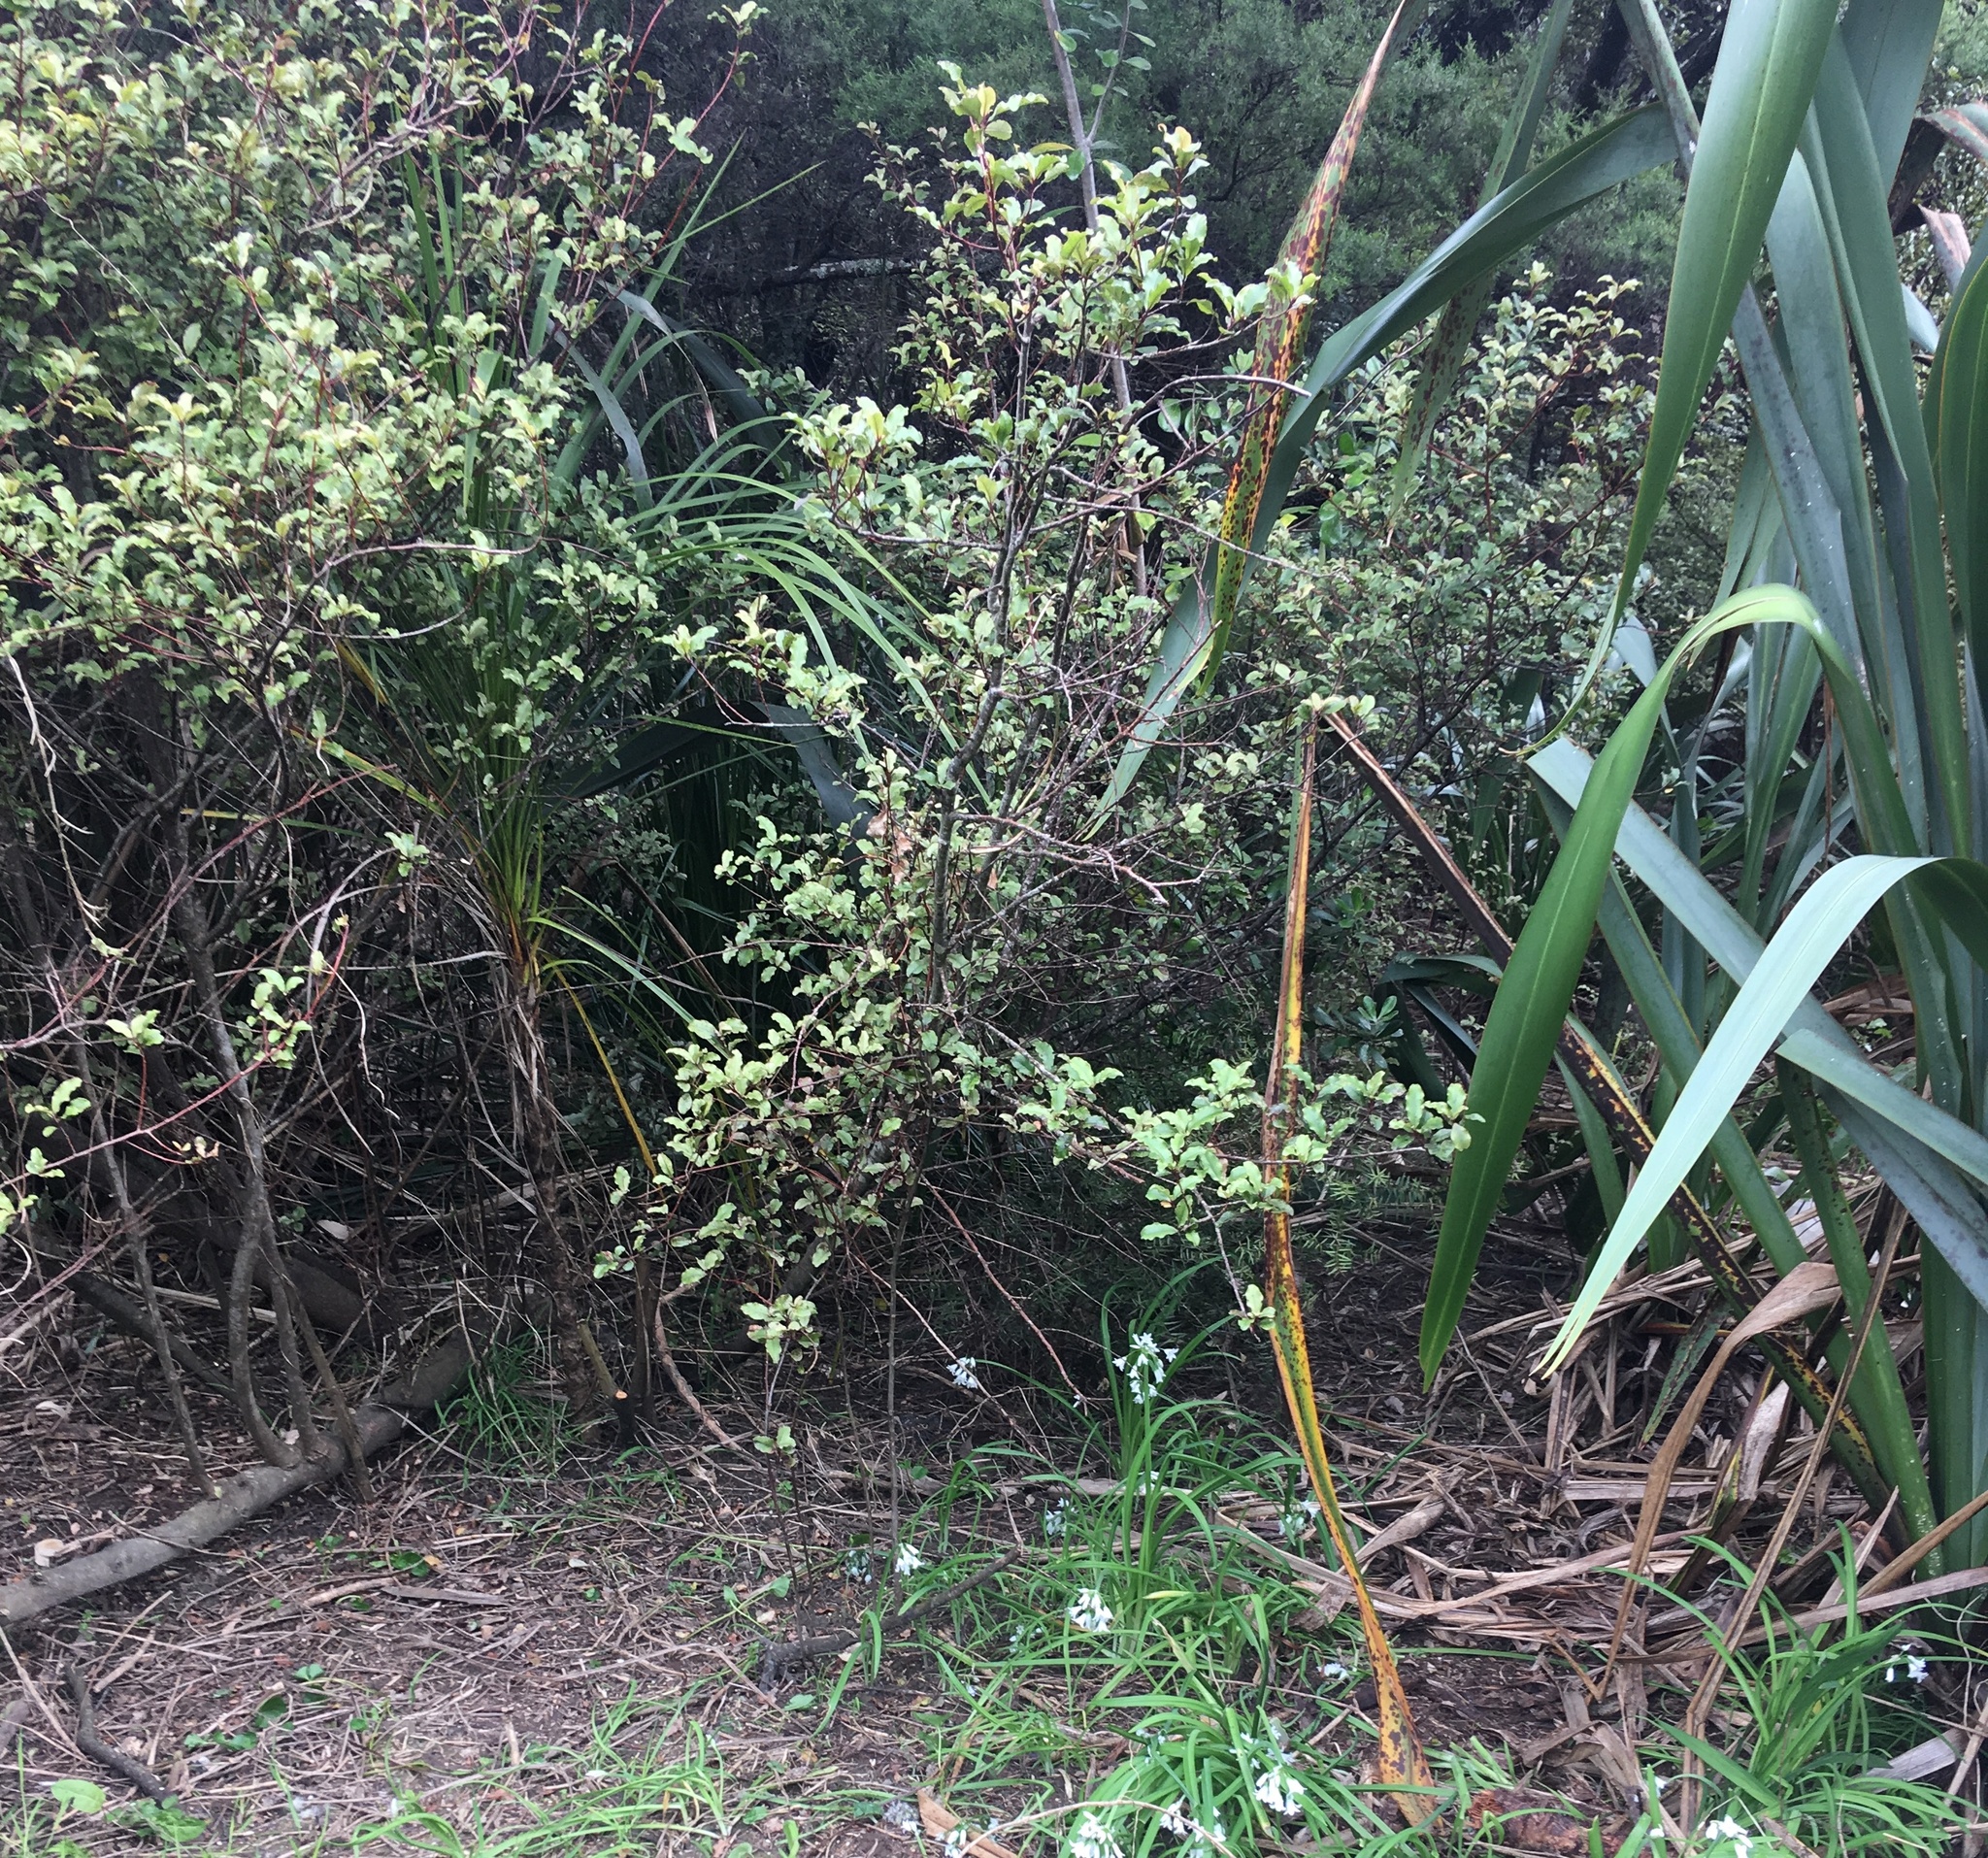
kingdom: Plantae
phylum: Tracheophyta
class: Magnoliopsida
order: Ericales
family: Primulaceae
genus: Myrsine
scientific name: Myrsine australis
